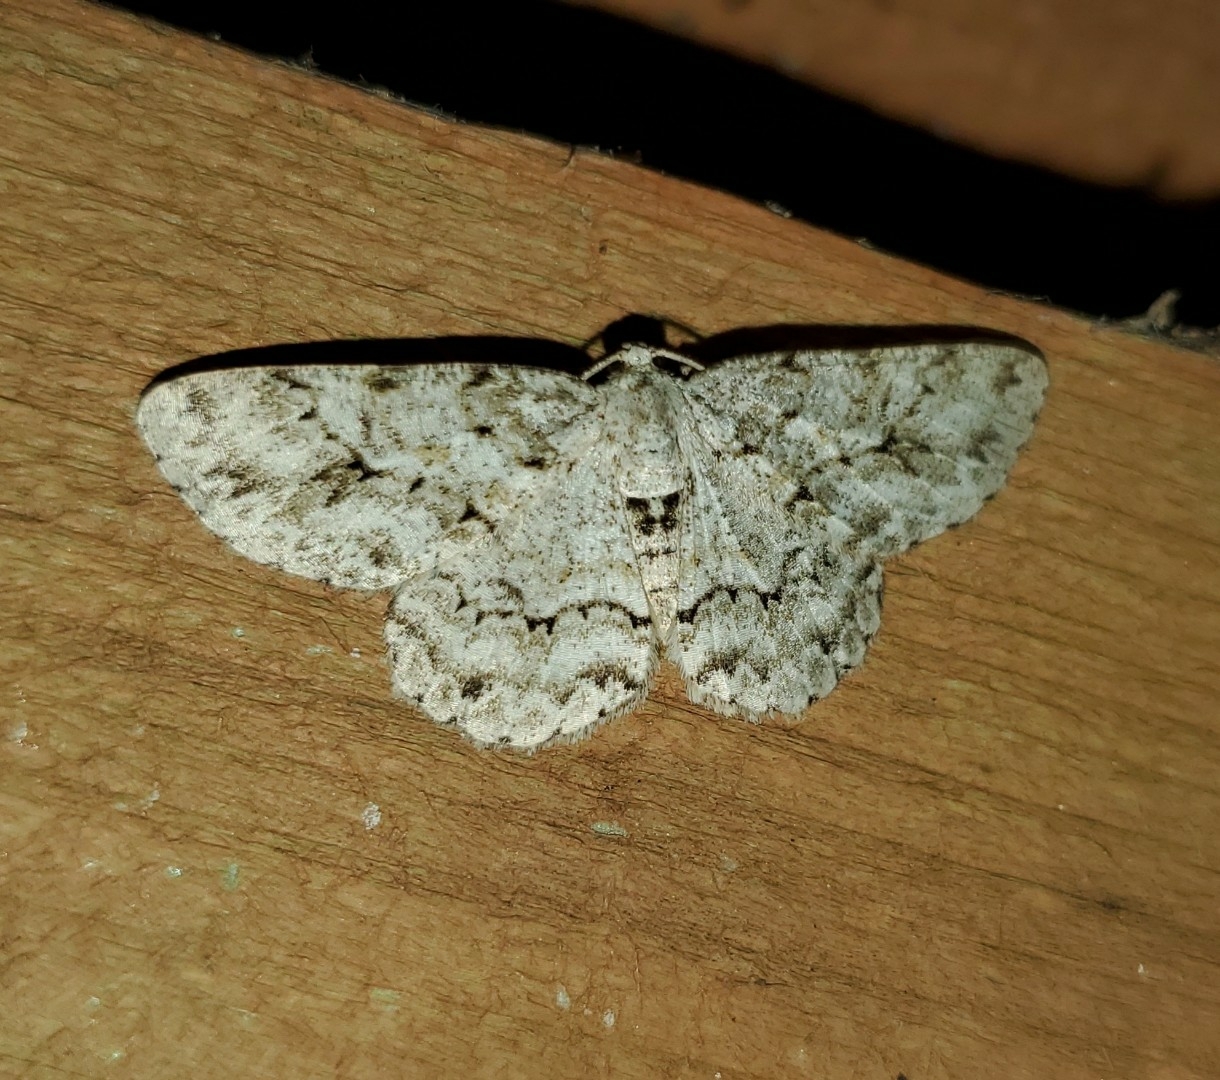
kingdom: Animalia
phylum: Arthropoda
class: Insecta
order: Lepidoptera
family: Geometridae
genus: Ectropis
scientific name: Ectropis crepuscularia
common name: Engrailed
